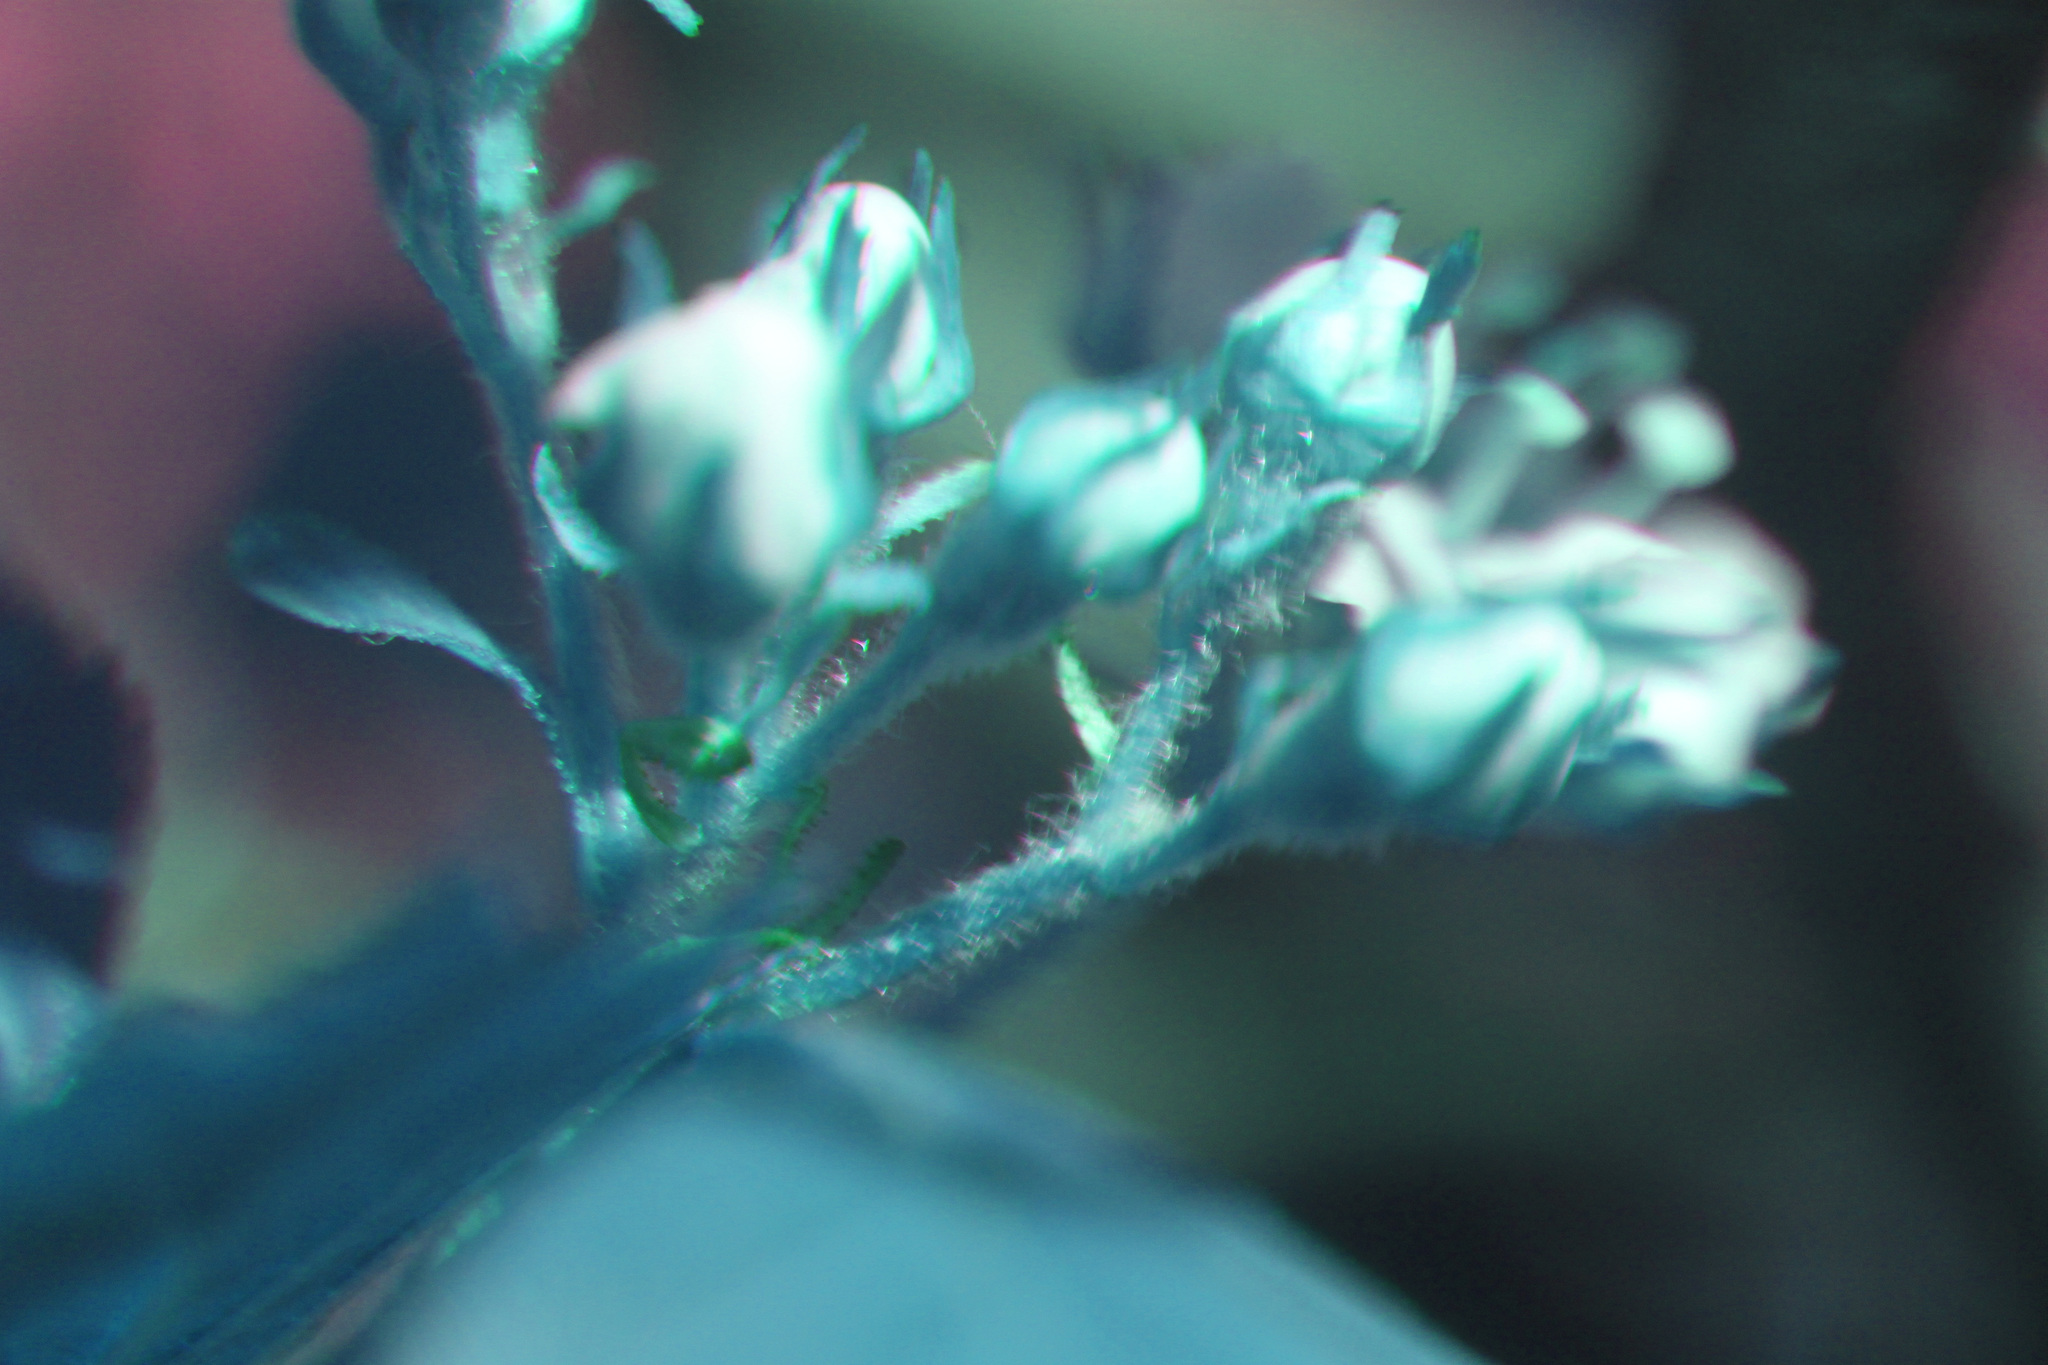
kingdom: Plantae
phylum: Tracheophyta
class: Magnoliopsida
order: Rosales
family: Rosaceae
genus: Crataegus
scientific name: Crataegus chrysocarpa
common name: Fire-berry hawthorn
